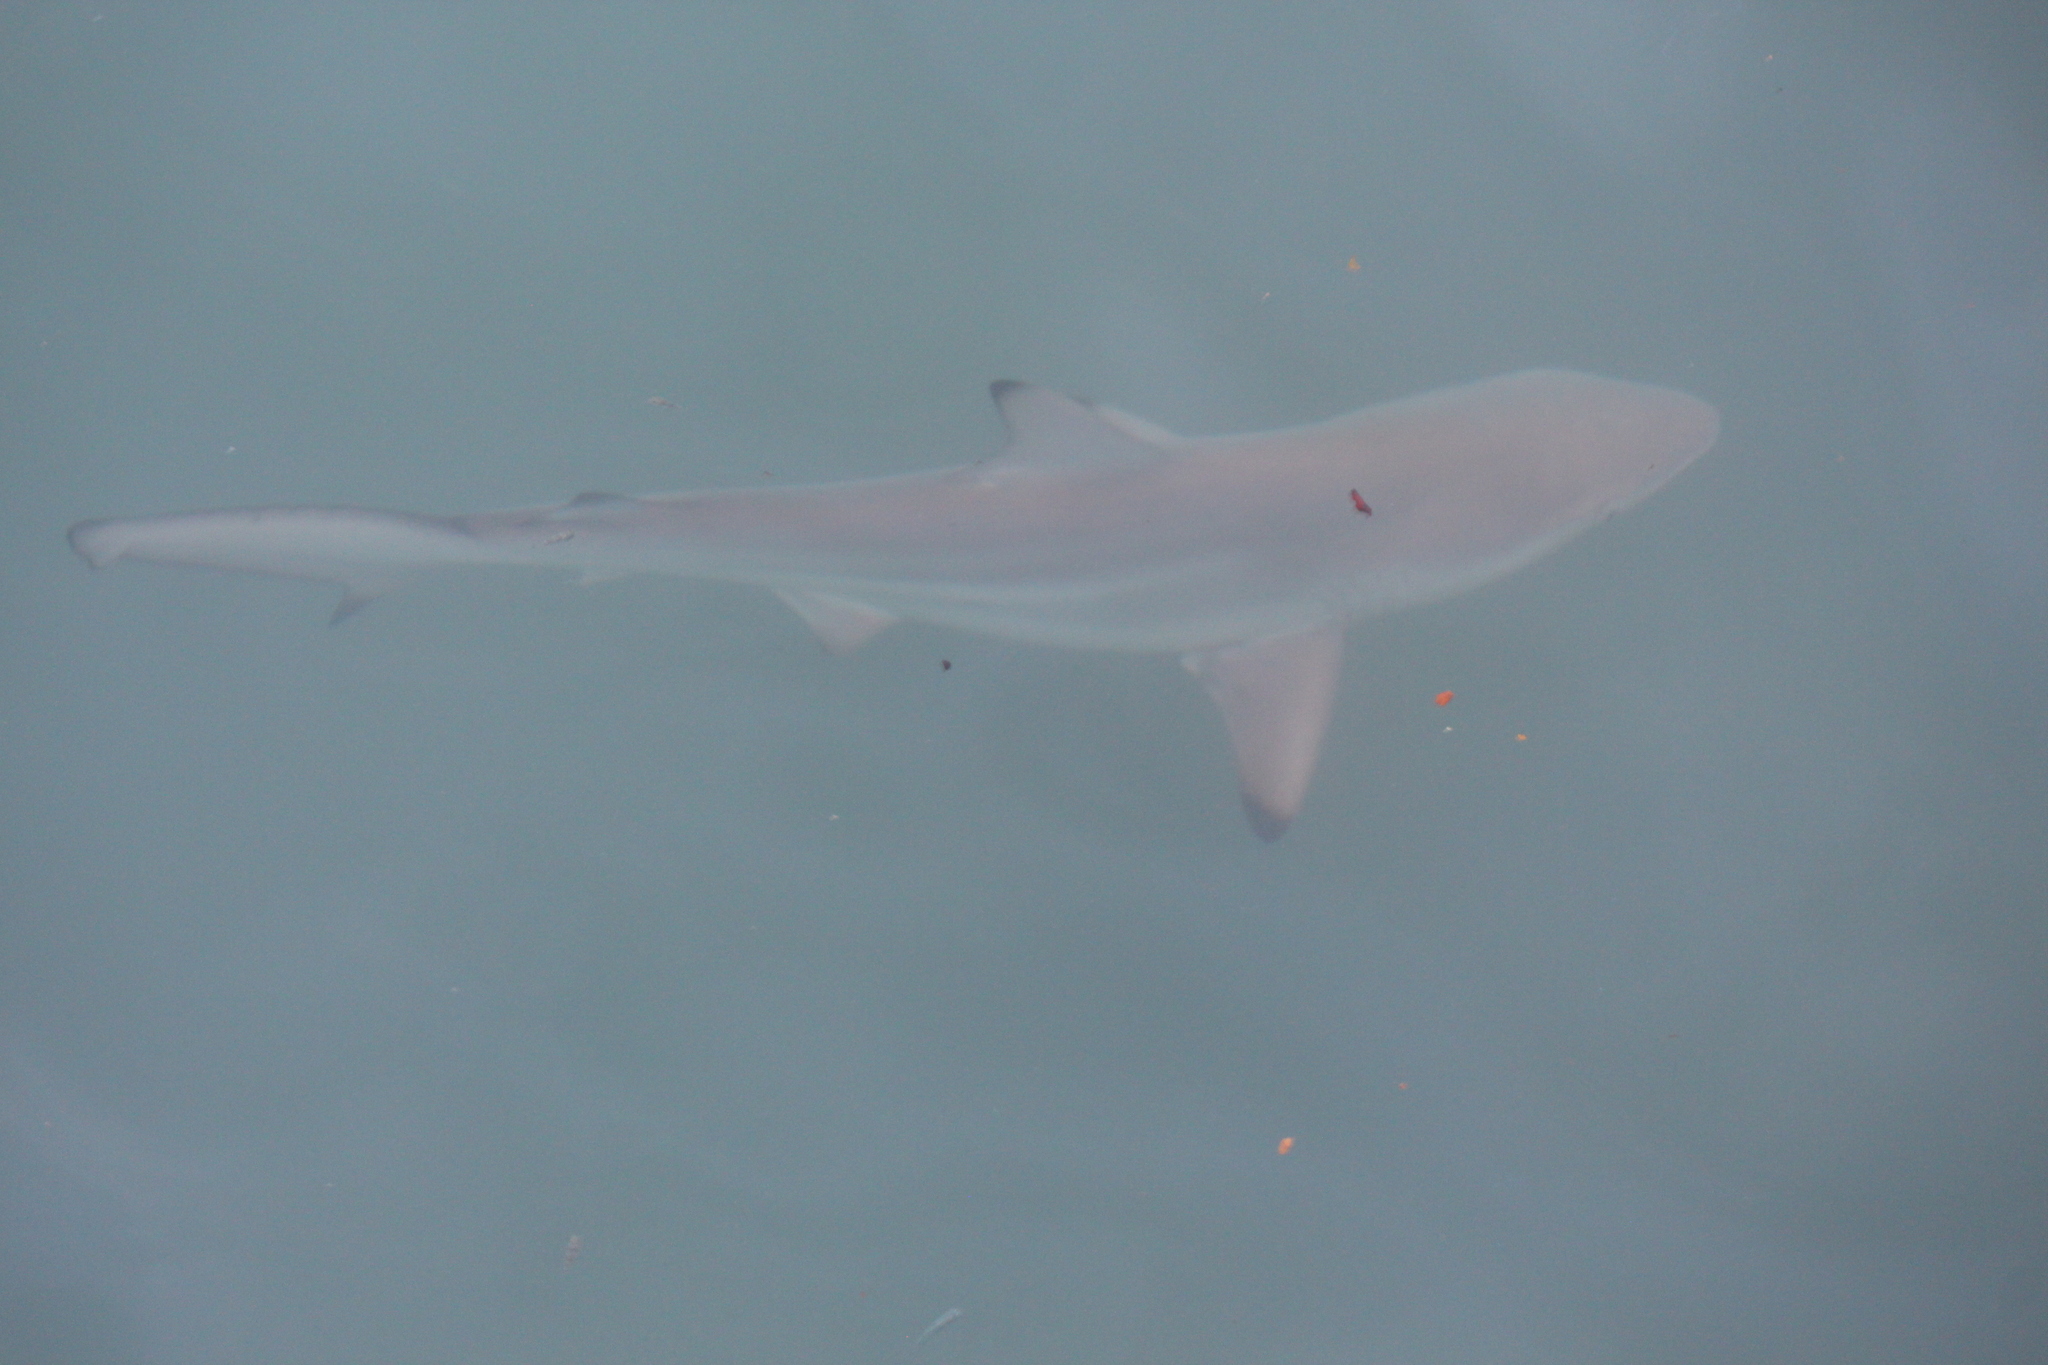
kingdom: Animalia
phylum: Chordata
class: Elasmobranchii
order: Carcharhiniformes
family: Carcharhinidae
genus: Carcharhinus
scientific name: Carcharhinus limbatus
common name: Blacktip shark
